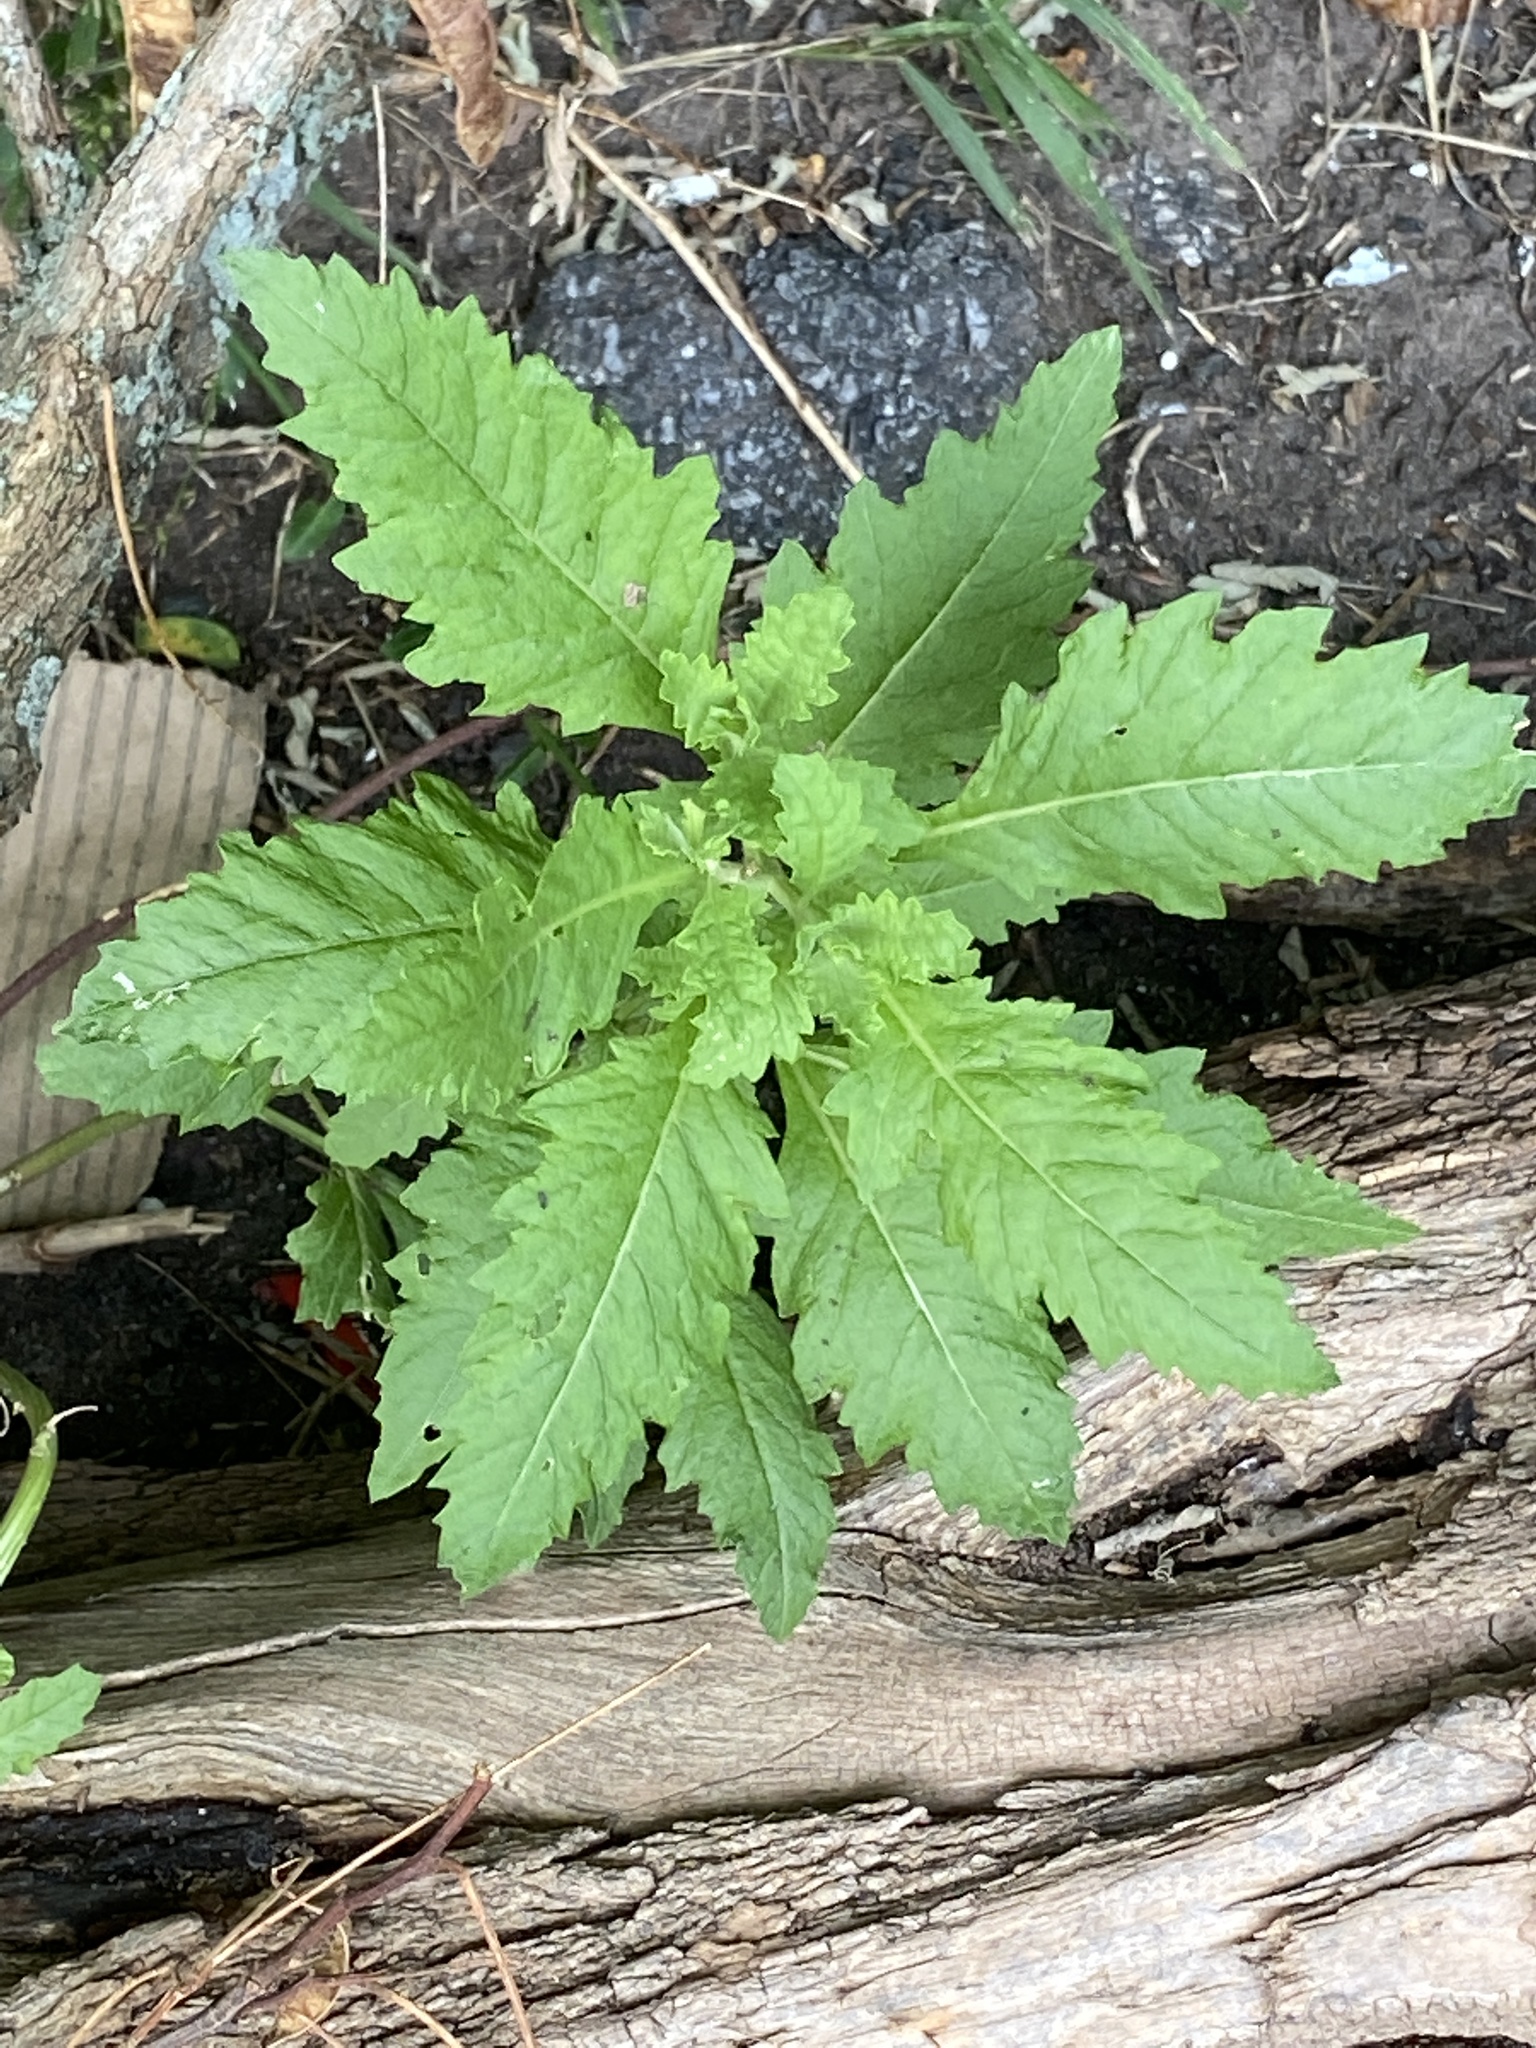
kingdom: Plantae
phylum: Tracheophyta
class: Magnoliopsida
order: Caryophyllales
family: Amaranthaceae
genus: Dysphania
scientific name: Dysphania ambrosioides
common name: Wormseed
